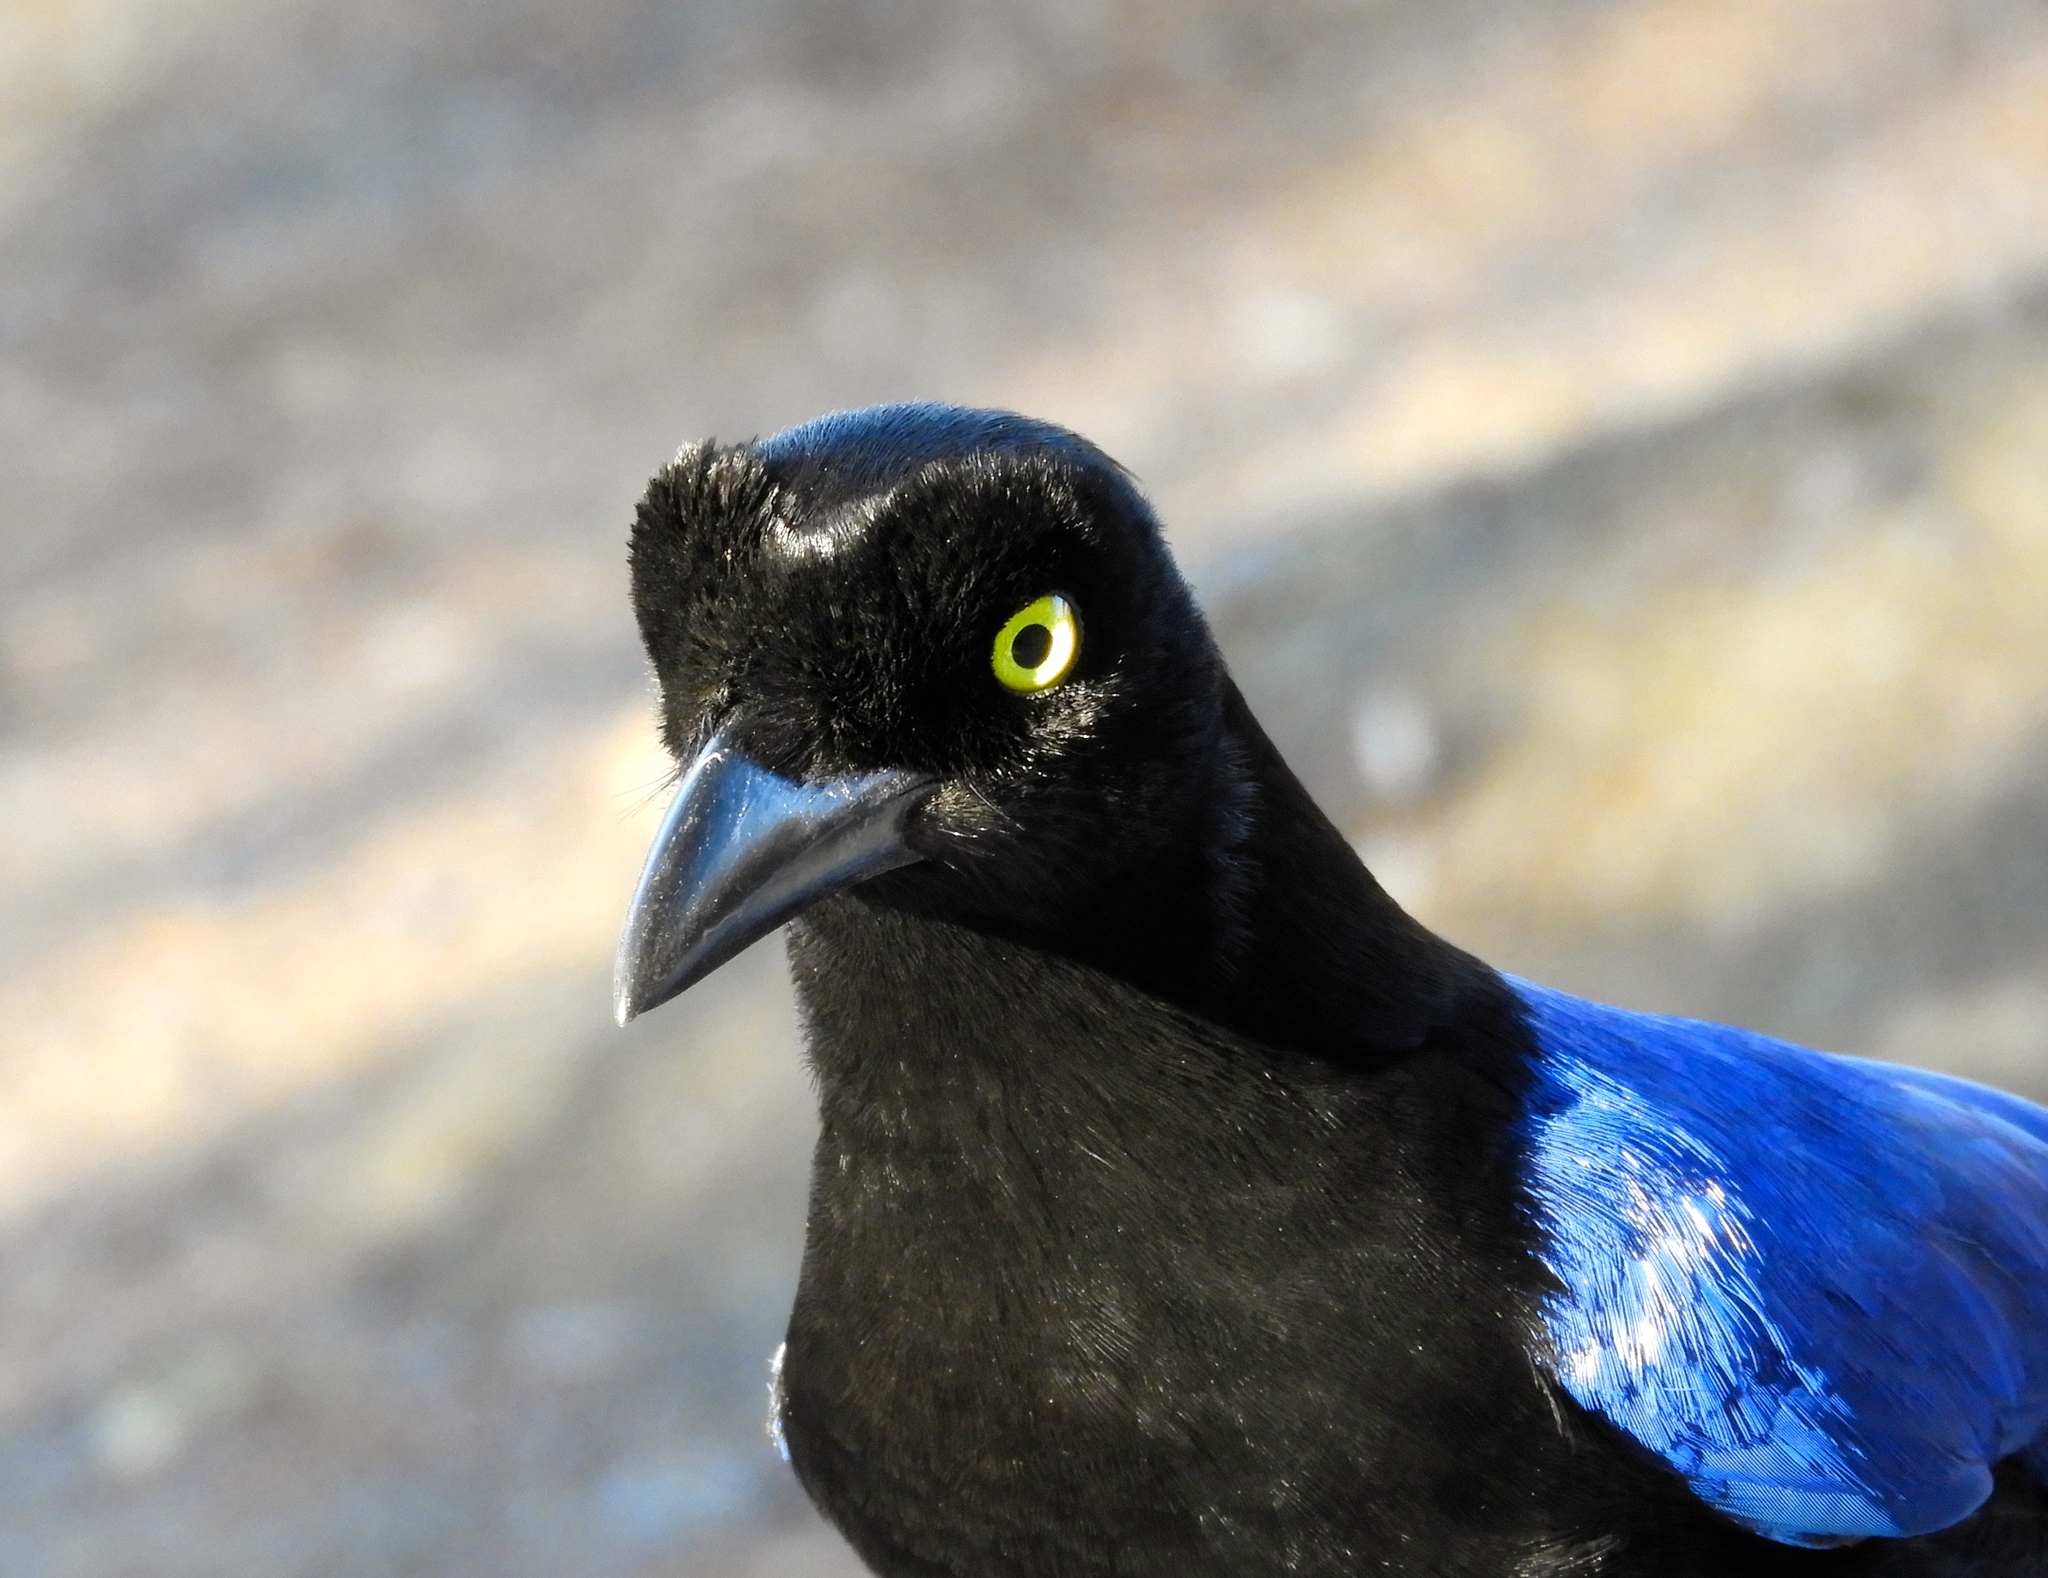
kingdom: Animalia
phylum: Chordata
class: Aves
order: Passeriformes
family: Corvidae
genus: Cyanocorax
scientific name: Cyanocorax beecheii
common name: Purplish-backed jay
